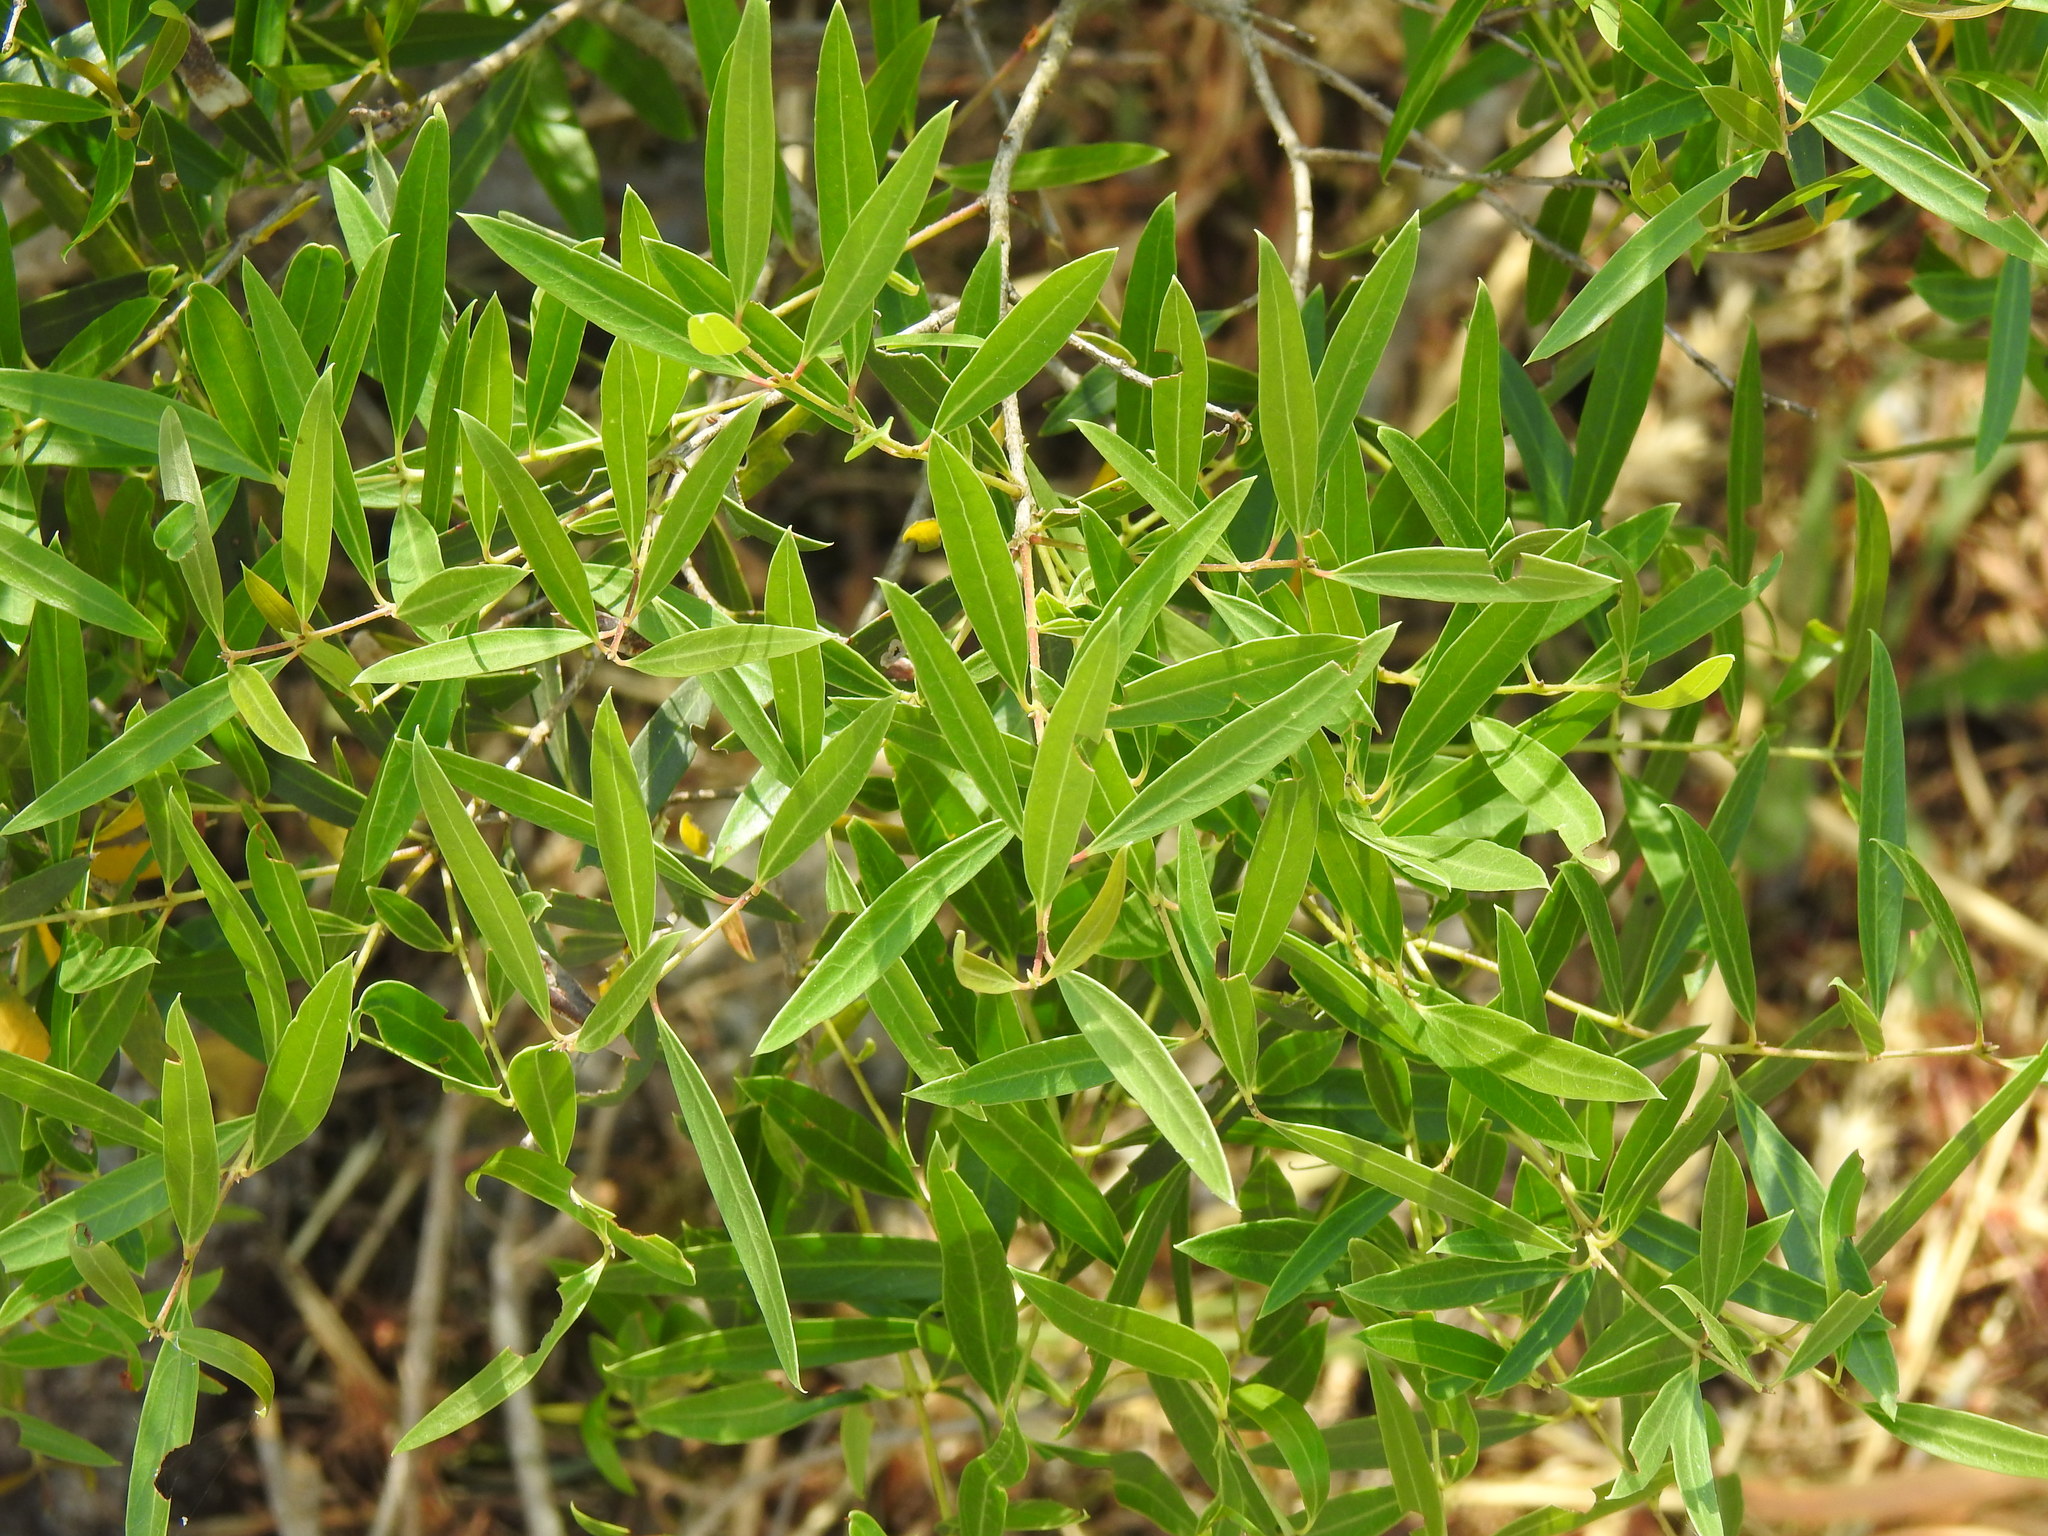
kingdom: Plantae
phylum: Tracheophyta
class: Magnoliopsida
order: Lamiales
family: Oleaceae
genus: Phillyrea
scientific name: Phillyrea angustifolia
